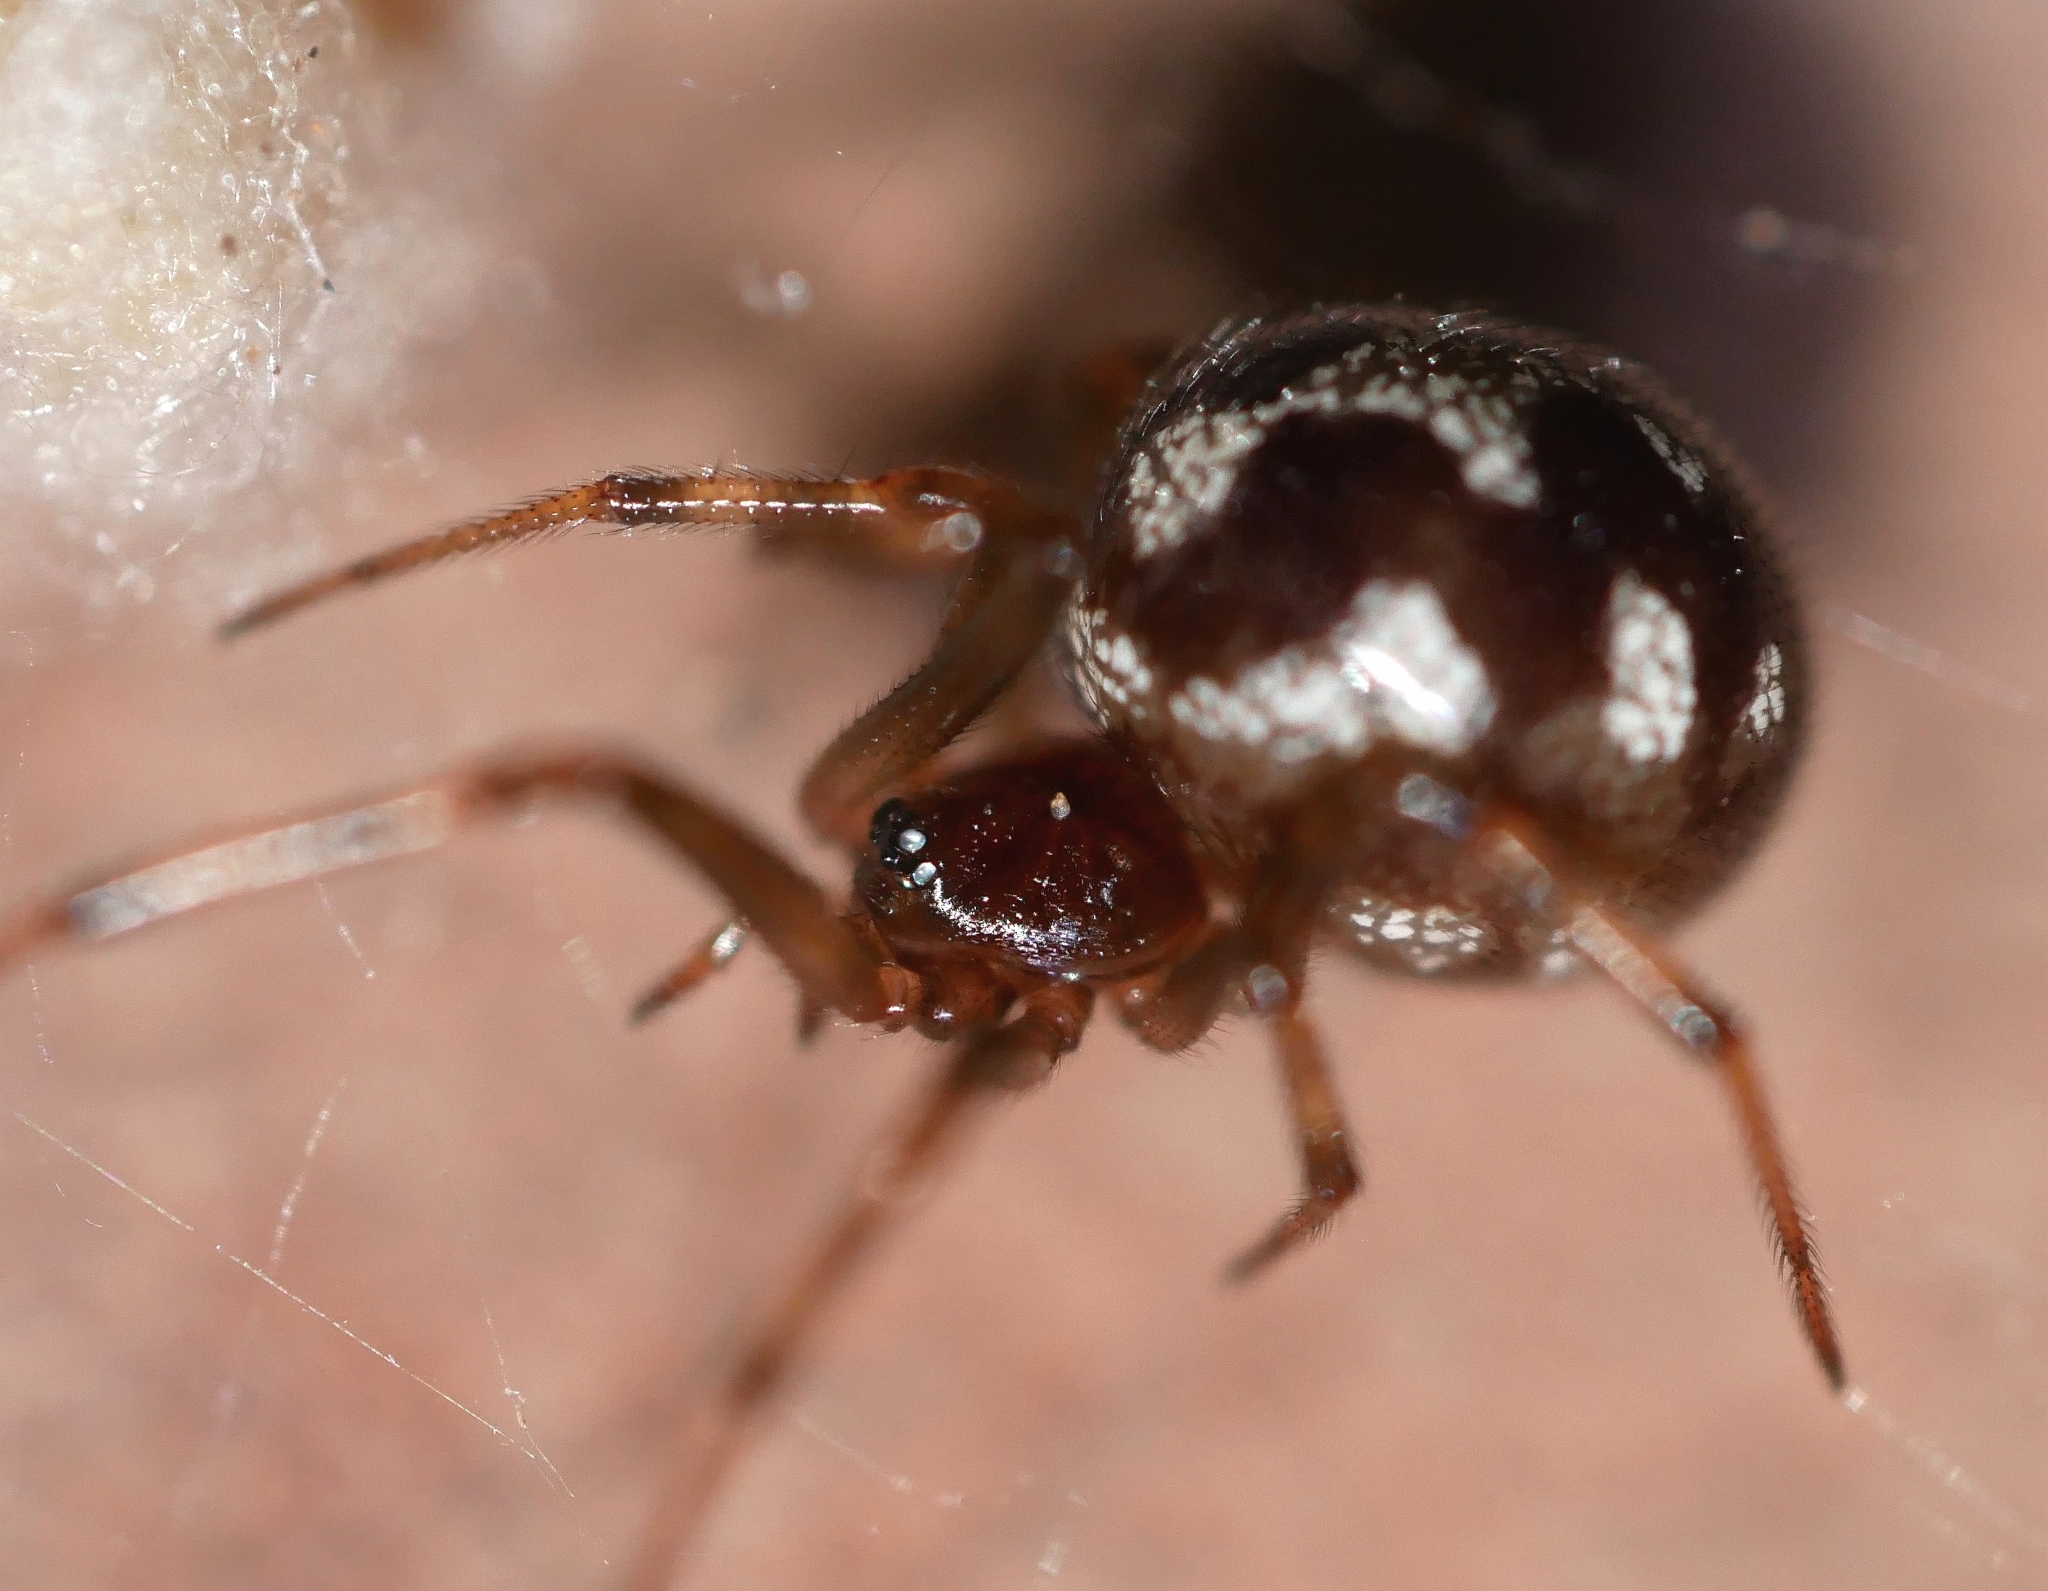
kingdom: Animalia
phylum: Arthropoda
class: Arachnida
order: Araneae
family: Theridiidae
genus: Steatoda
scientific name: Steatoda triangulosa
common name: Triangulate bud spider
